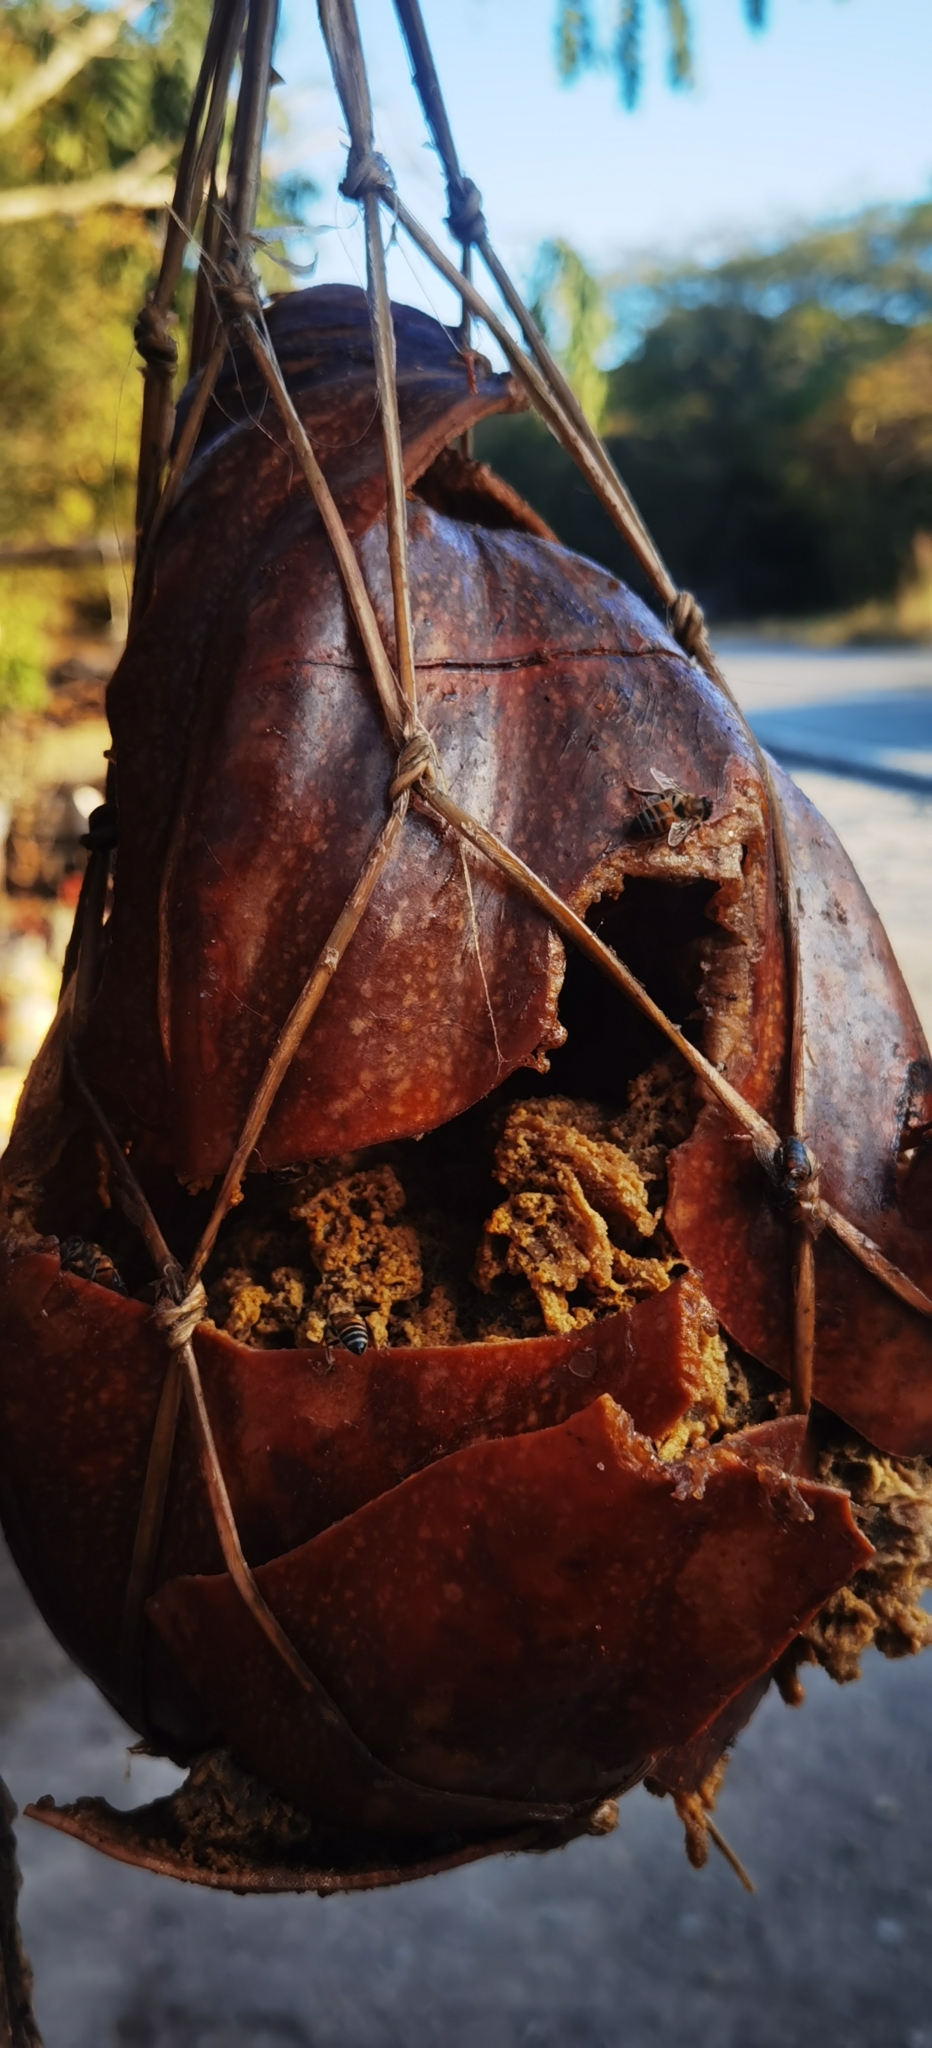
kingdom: Animalia
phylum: Arthropoda
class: Insecta
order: Hymenoptera
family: Apidae
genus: Apis
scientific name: Apis mellifera
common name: Honey bee
